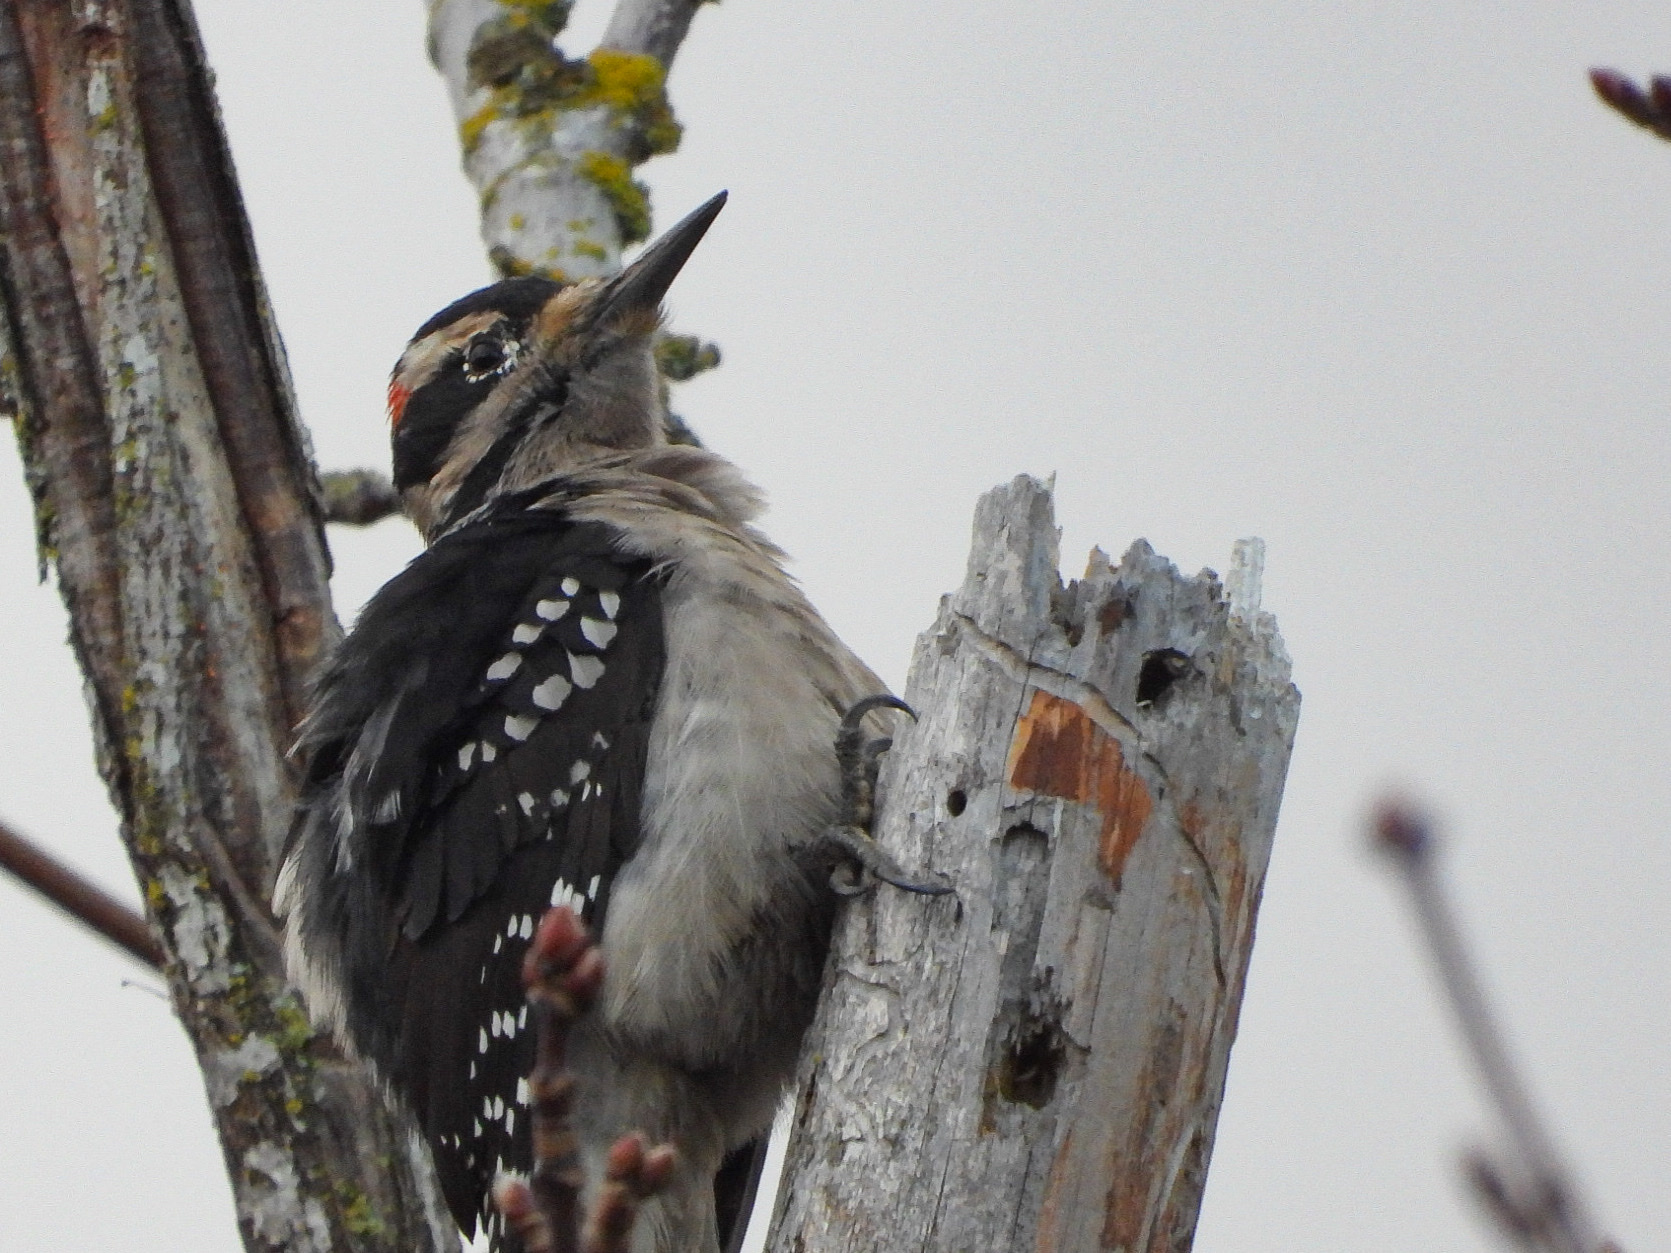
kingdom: Animalia
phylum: Chordata
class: Aves
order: Piciformes
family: Picidae
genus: Leuconotopicus
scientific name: Leuconotopicus villosus
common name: Hairy woodpecker
